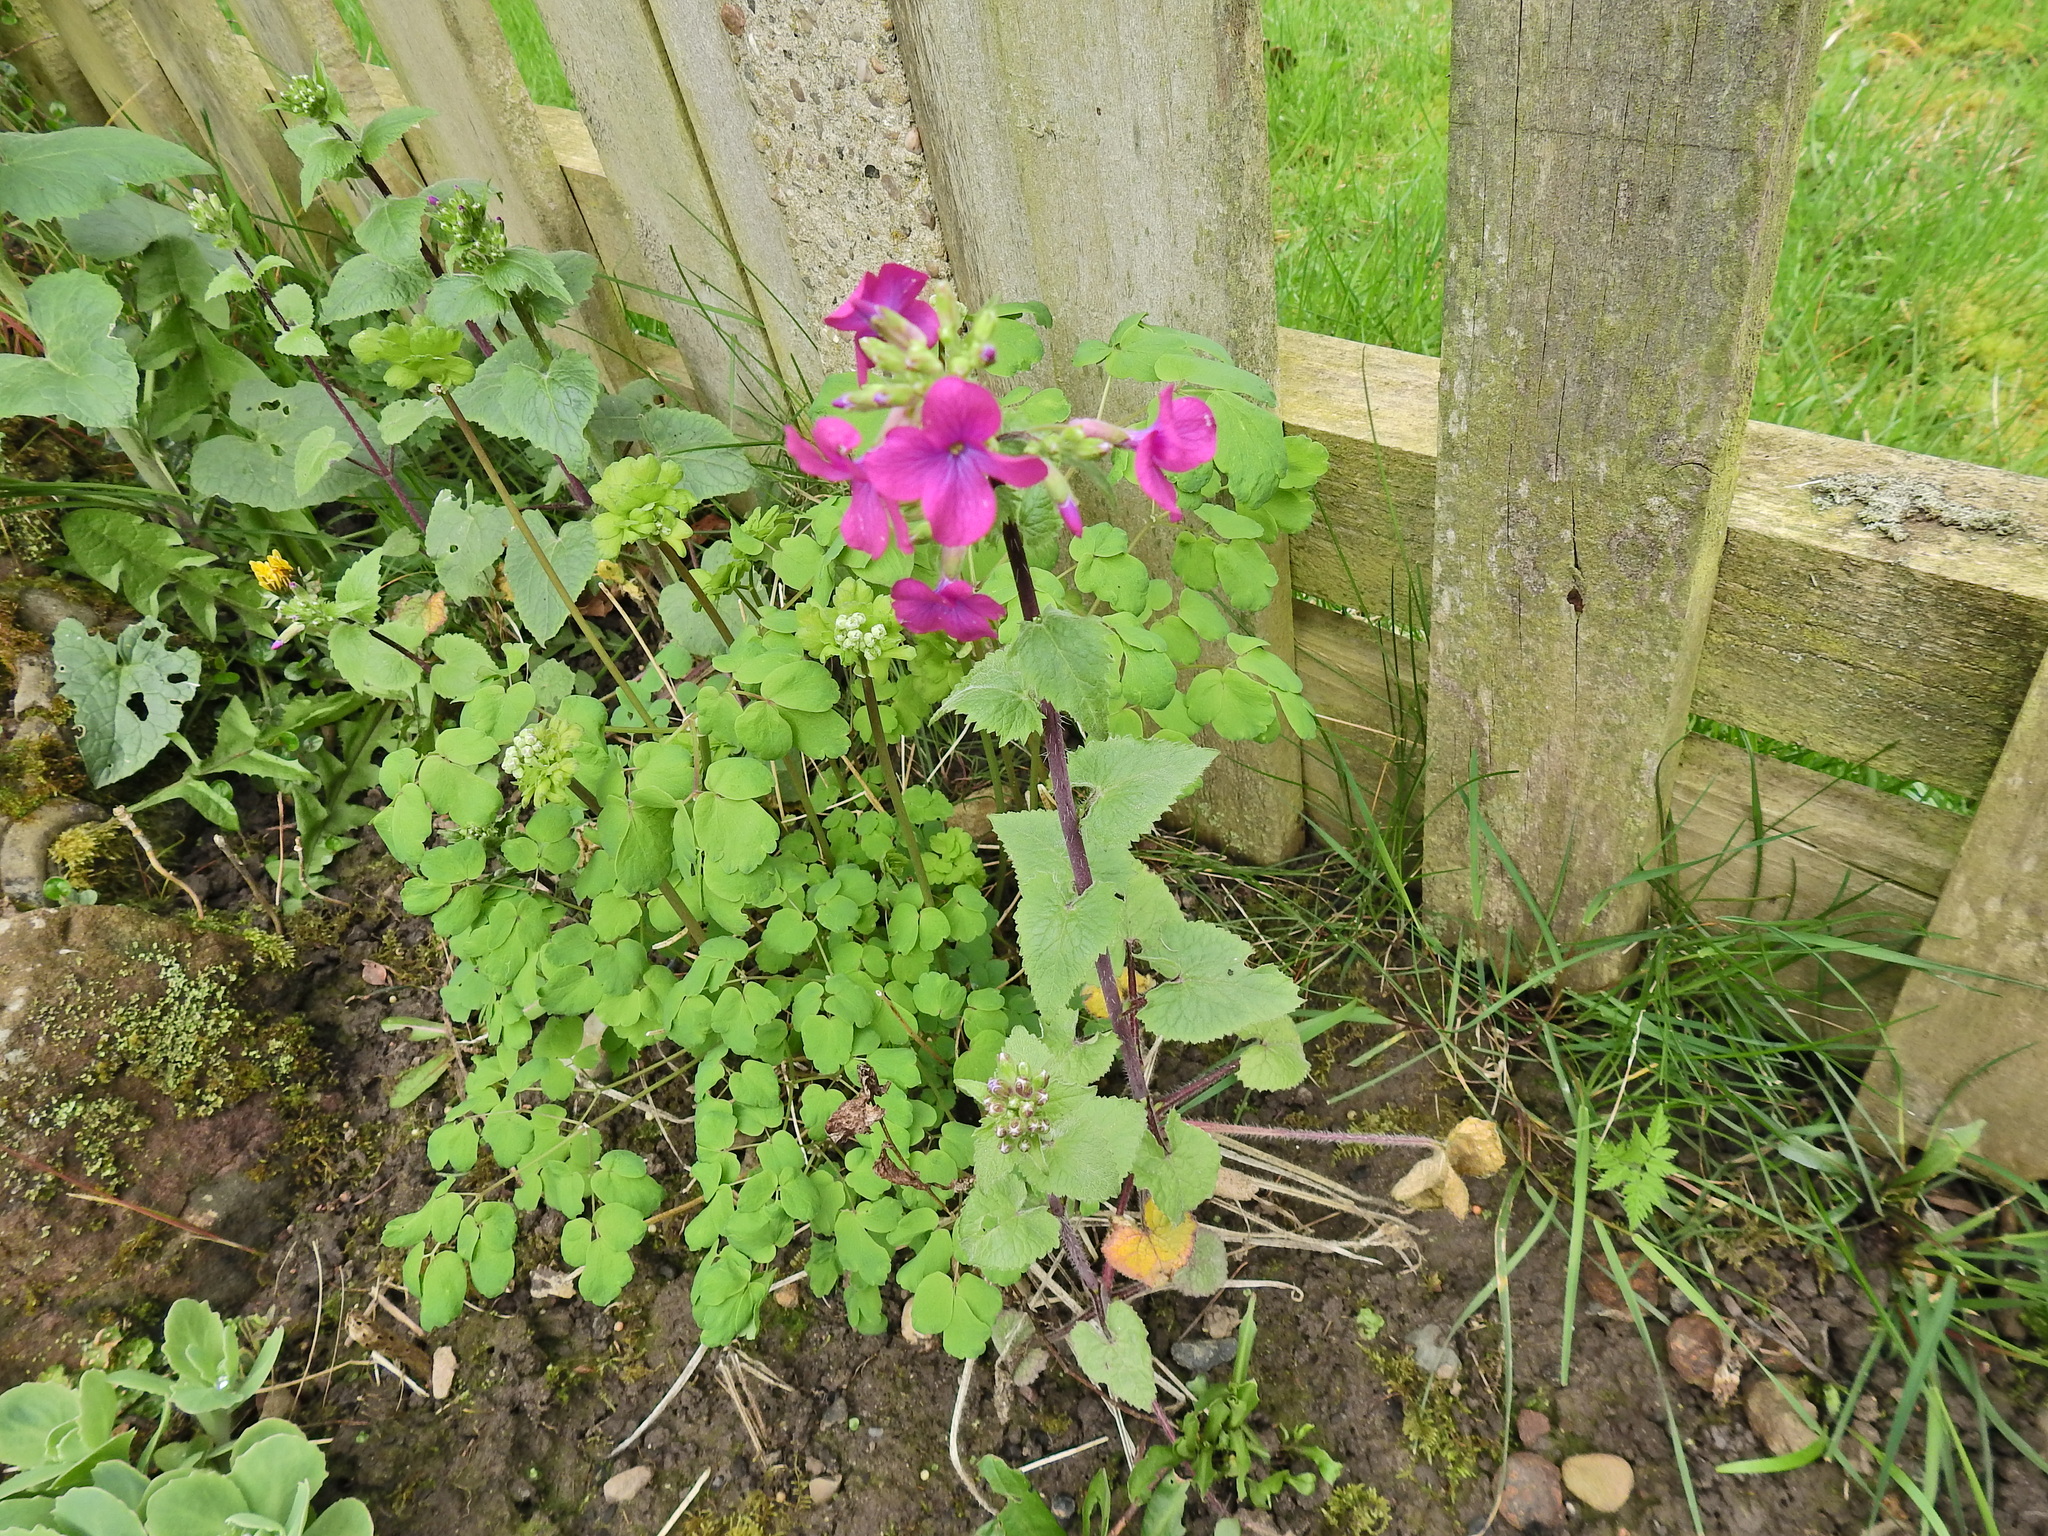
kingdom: Plantae
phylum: Tracheophyta
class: Magnoliopsida
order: Brassicales
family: Brassicaceae
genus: Lunaria
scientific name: Lunaria annua
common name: Honesty
